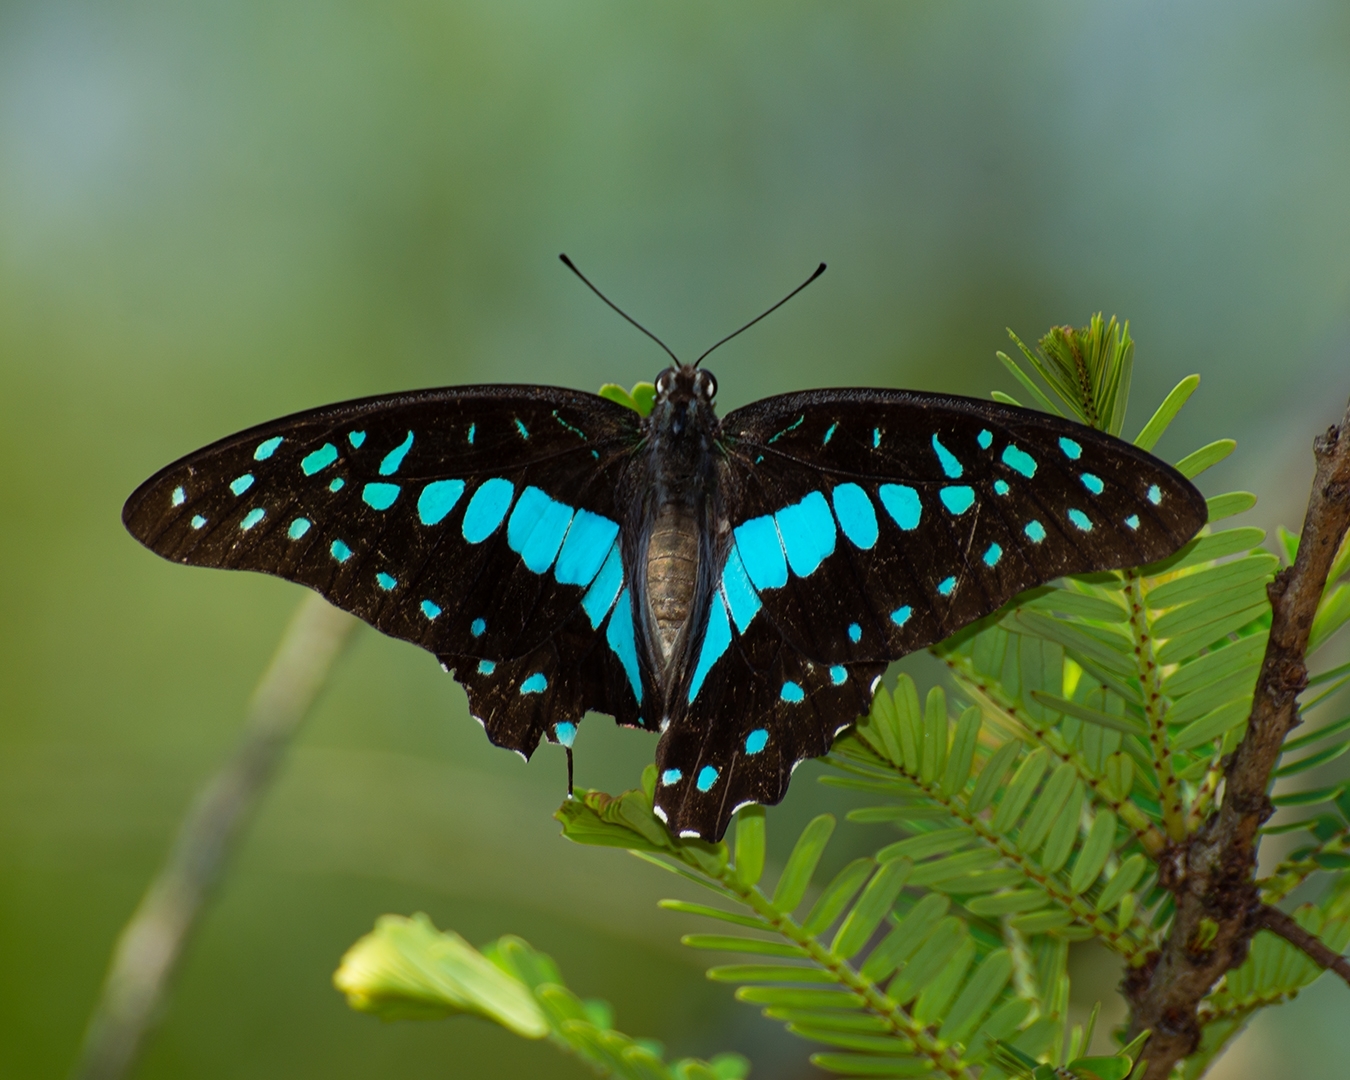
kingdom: Animalia
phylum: Arthropoda
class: Insecta
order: Lepidoptera
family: Papilionidae
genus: Graphium
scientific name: Graphium doson
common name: Common jay
